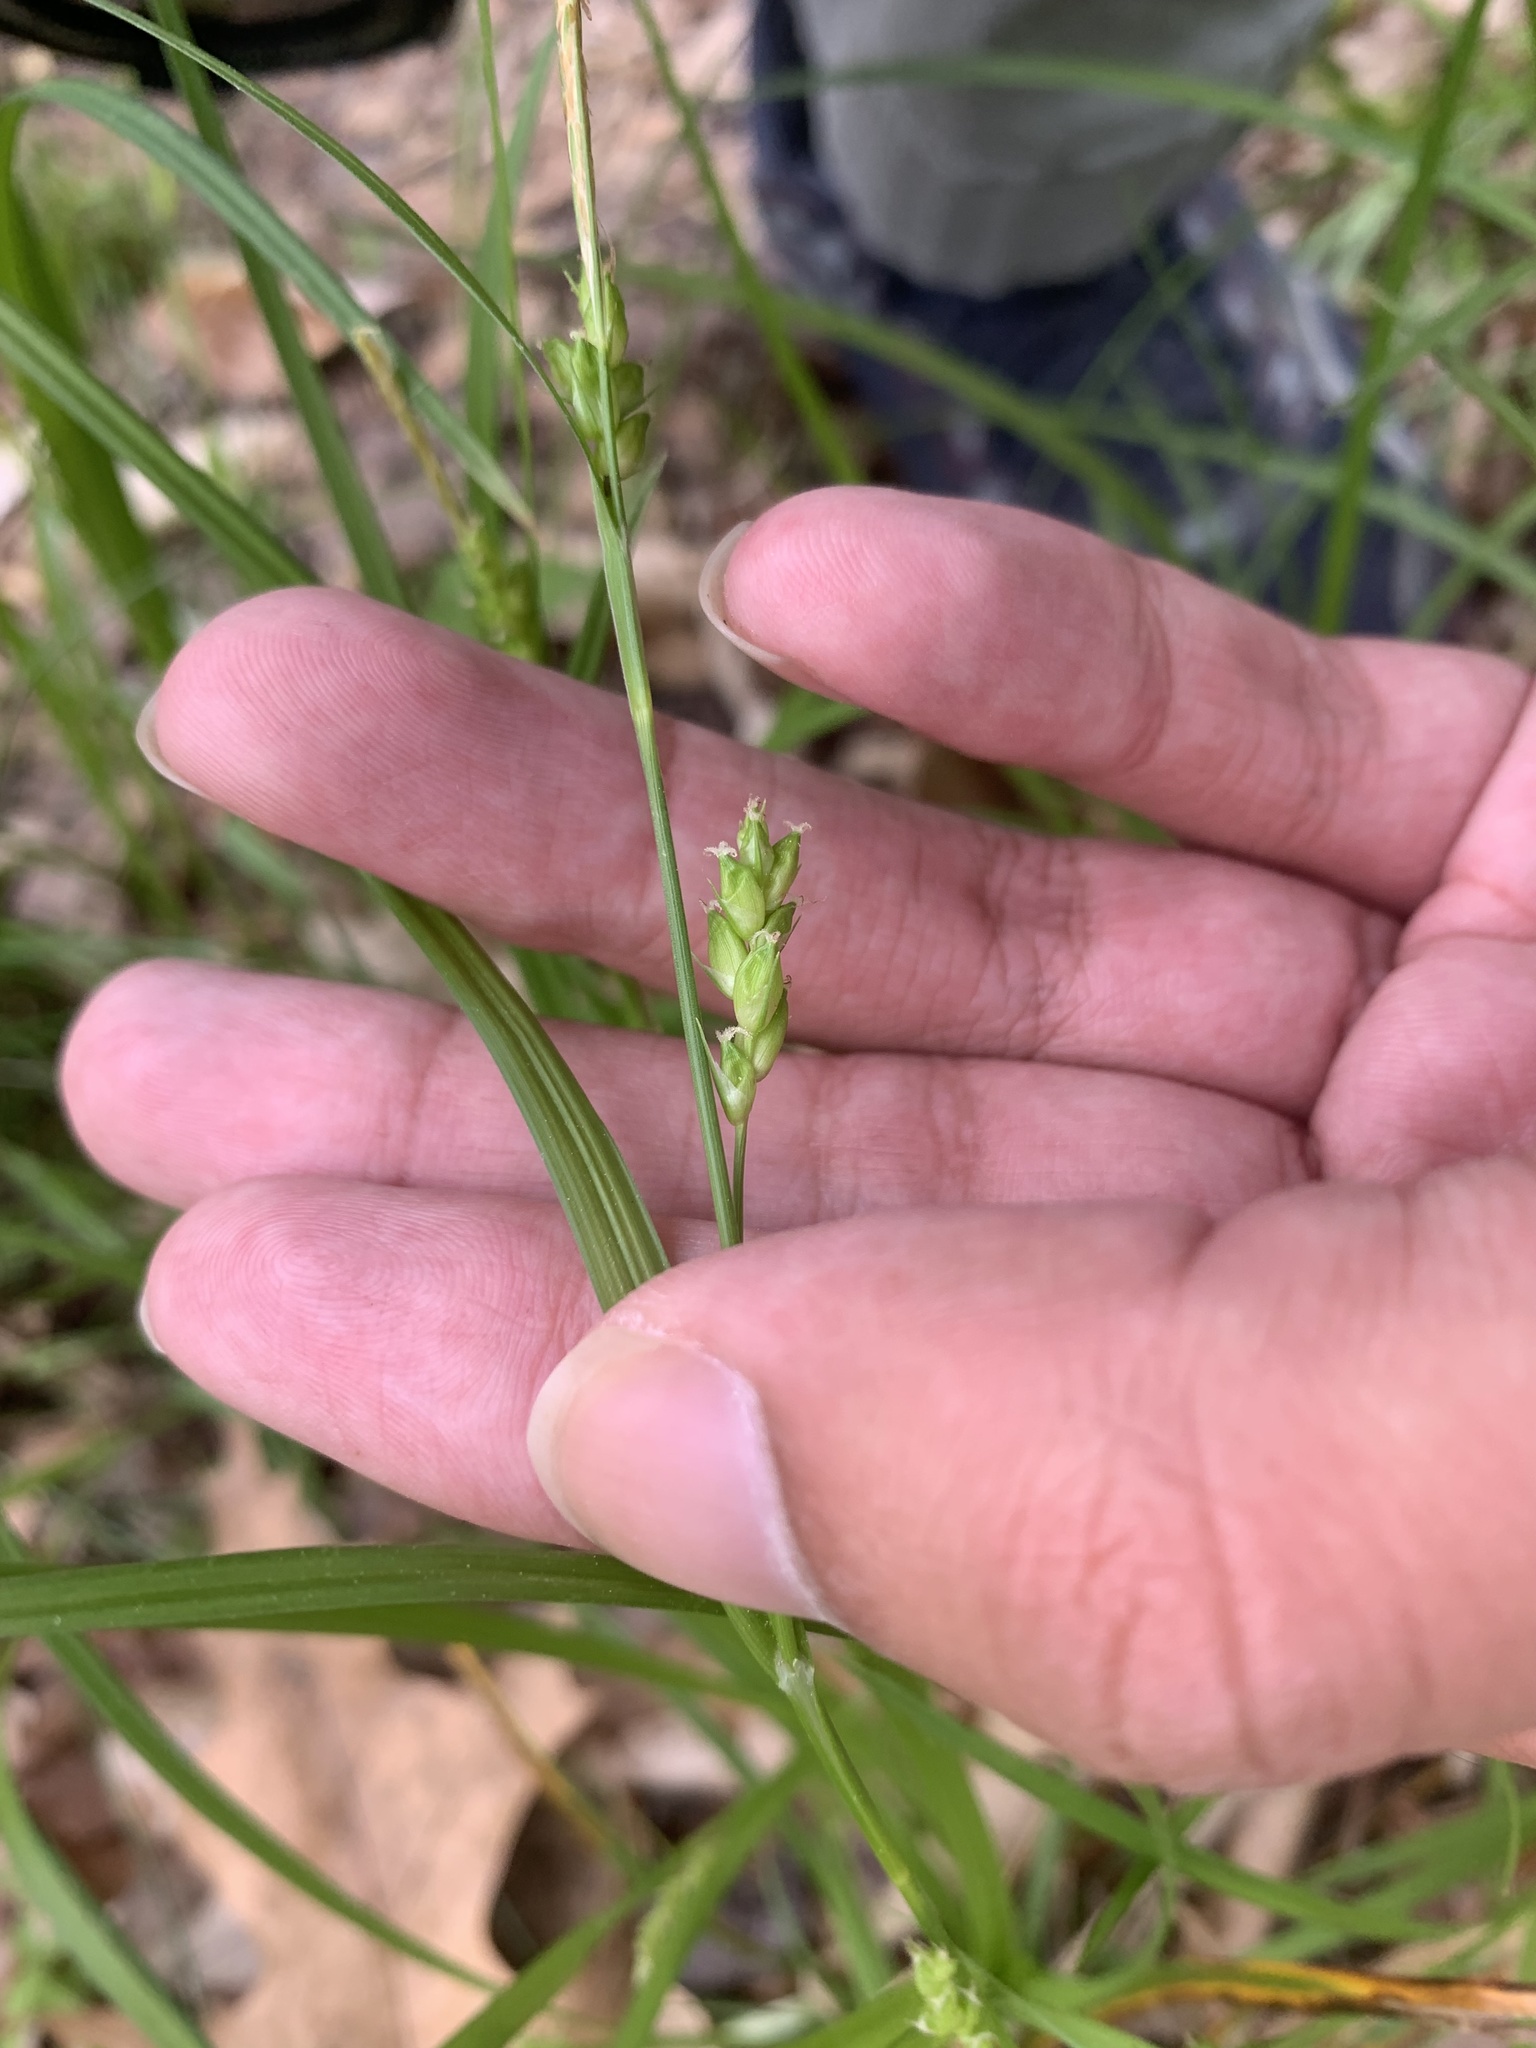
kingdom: Plantae
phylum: Tracheophyta
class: Liliopsida
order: Poales
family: Cyperaceae
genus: Carex
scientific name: Carex amphibola
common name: Amphibious sedge
